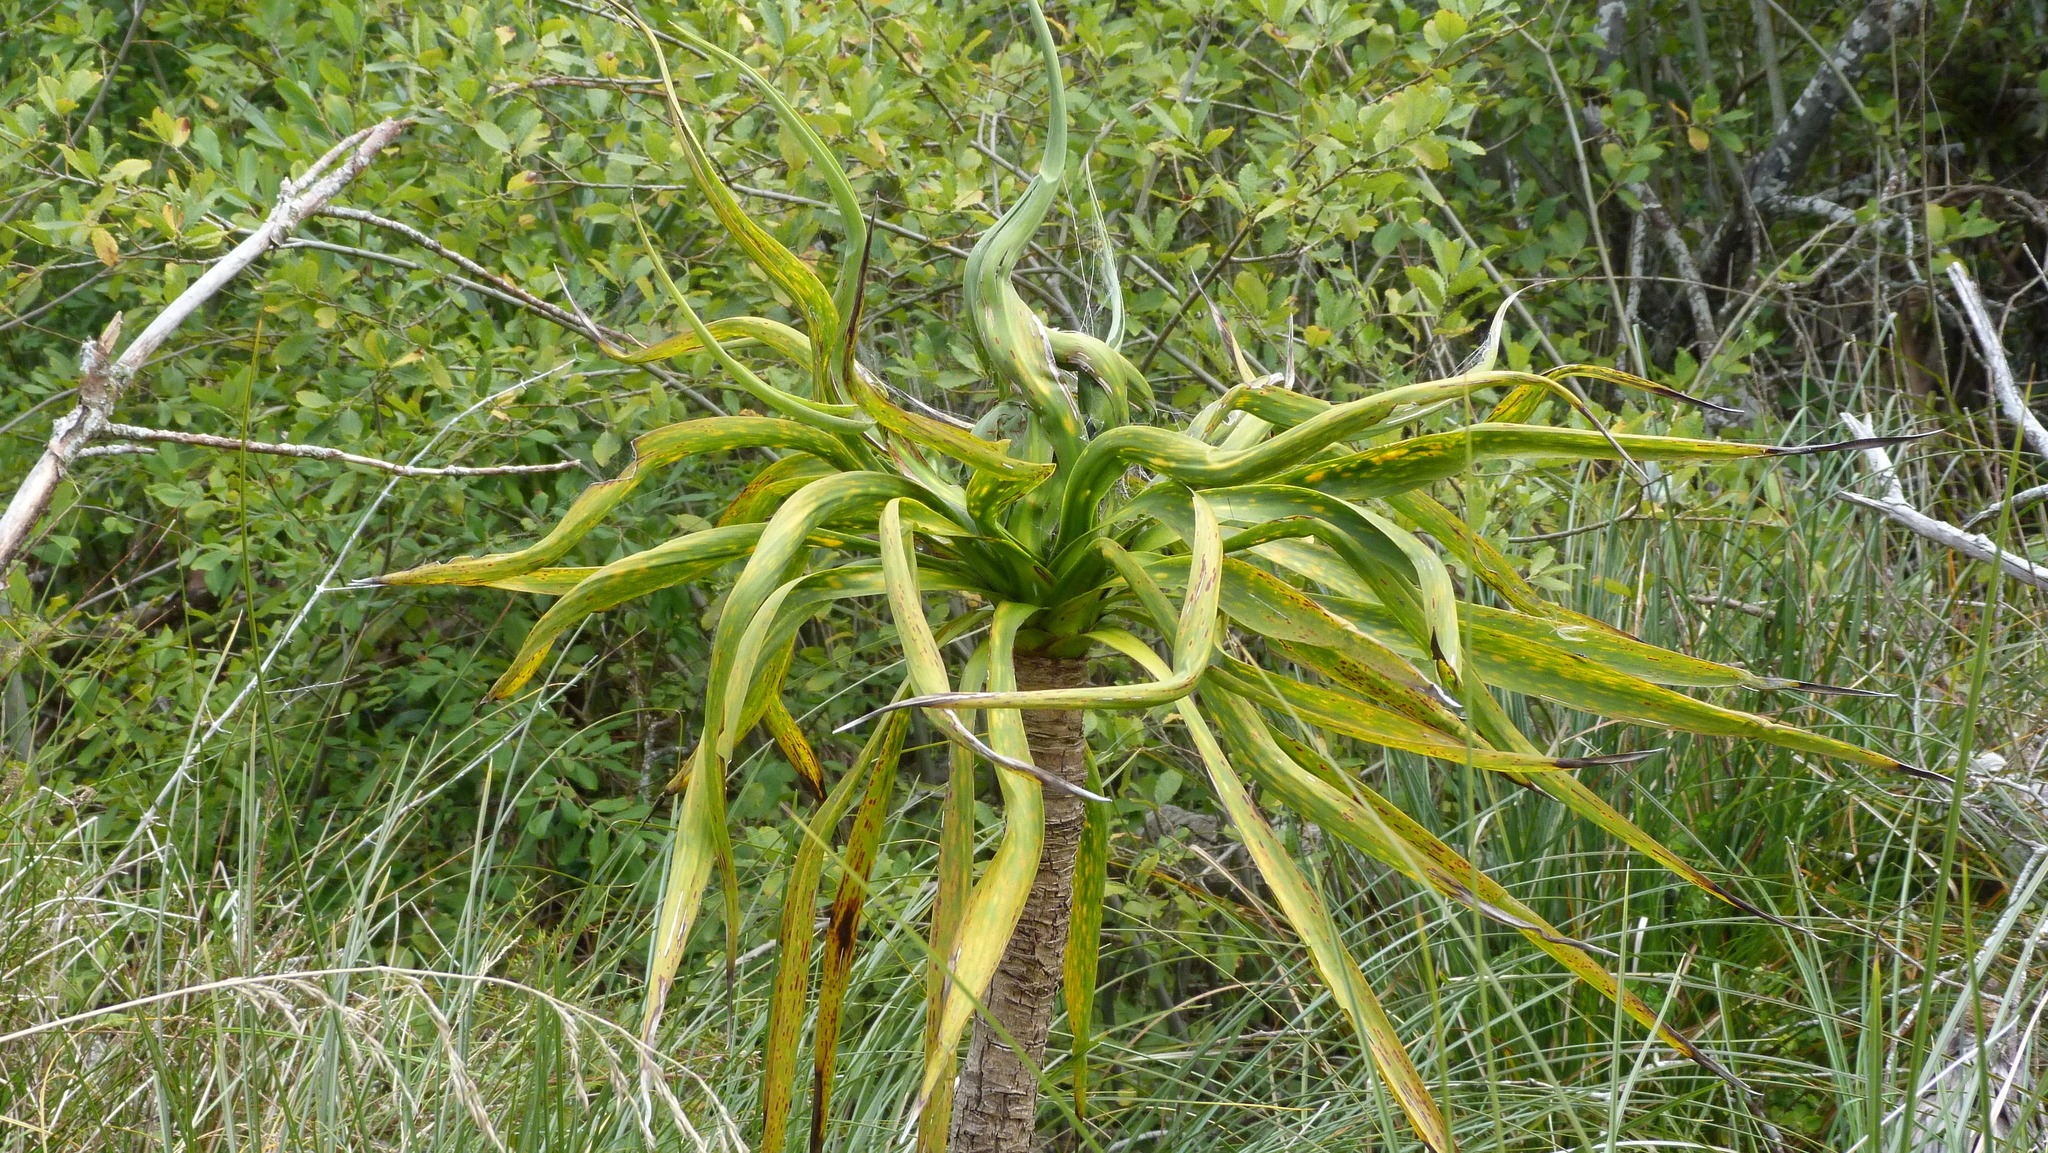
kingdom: Plantae
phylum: Tracheophyta
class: Liliopsida
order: Asparagales
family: Asparagaceae
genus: Cordyline
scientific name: Cordyline australis
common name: Cabbage-palm
